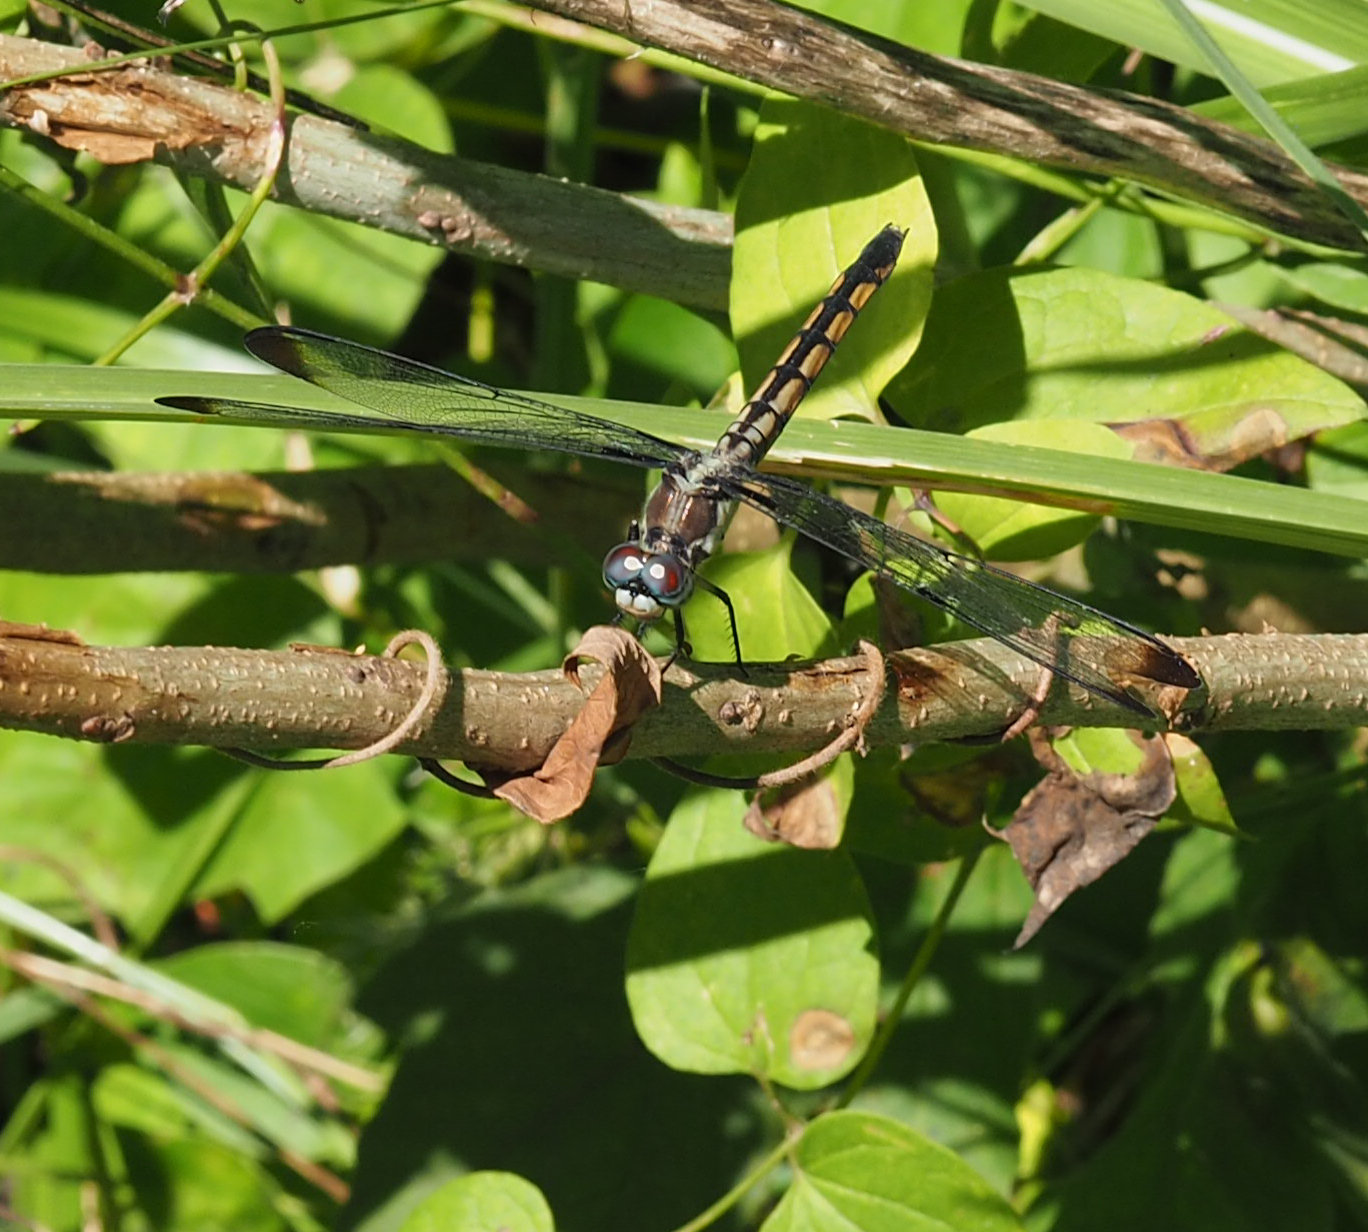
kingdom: Animalia
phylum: Arthropoda
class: Insecta
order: Odonata
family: Libellulidae
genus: Libellula
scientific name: Libellula vibrans
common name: Great blue skimmer
